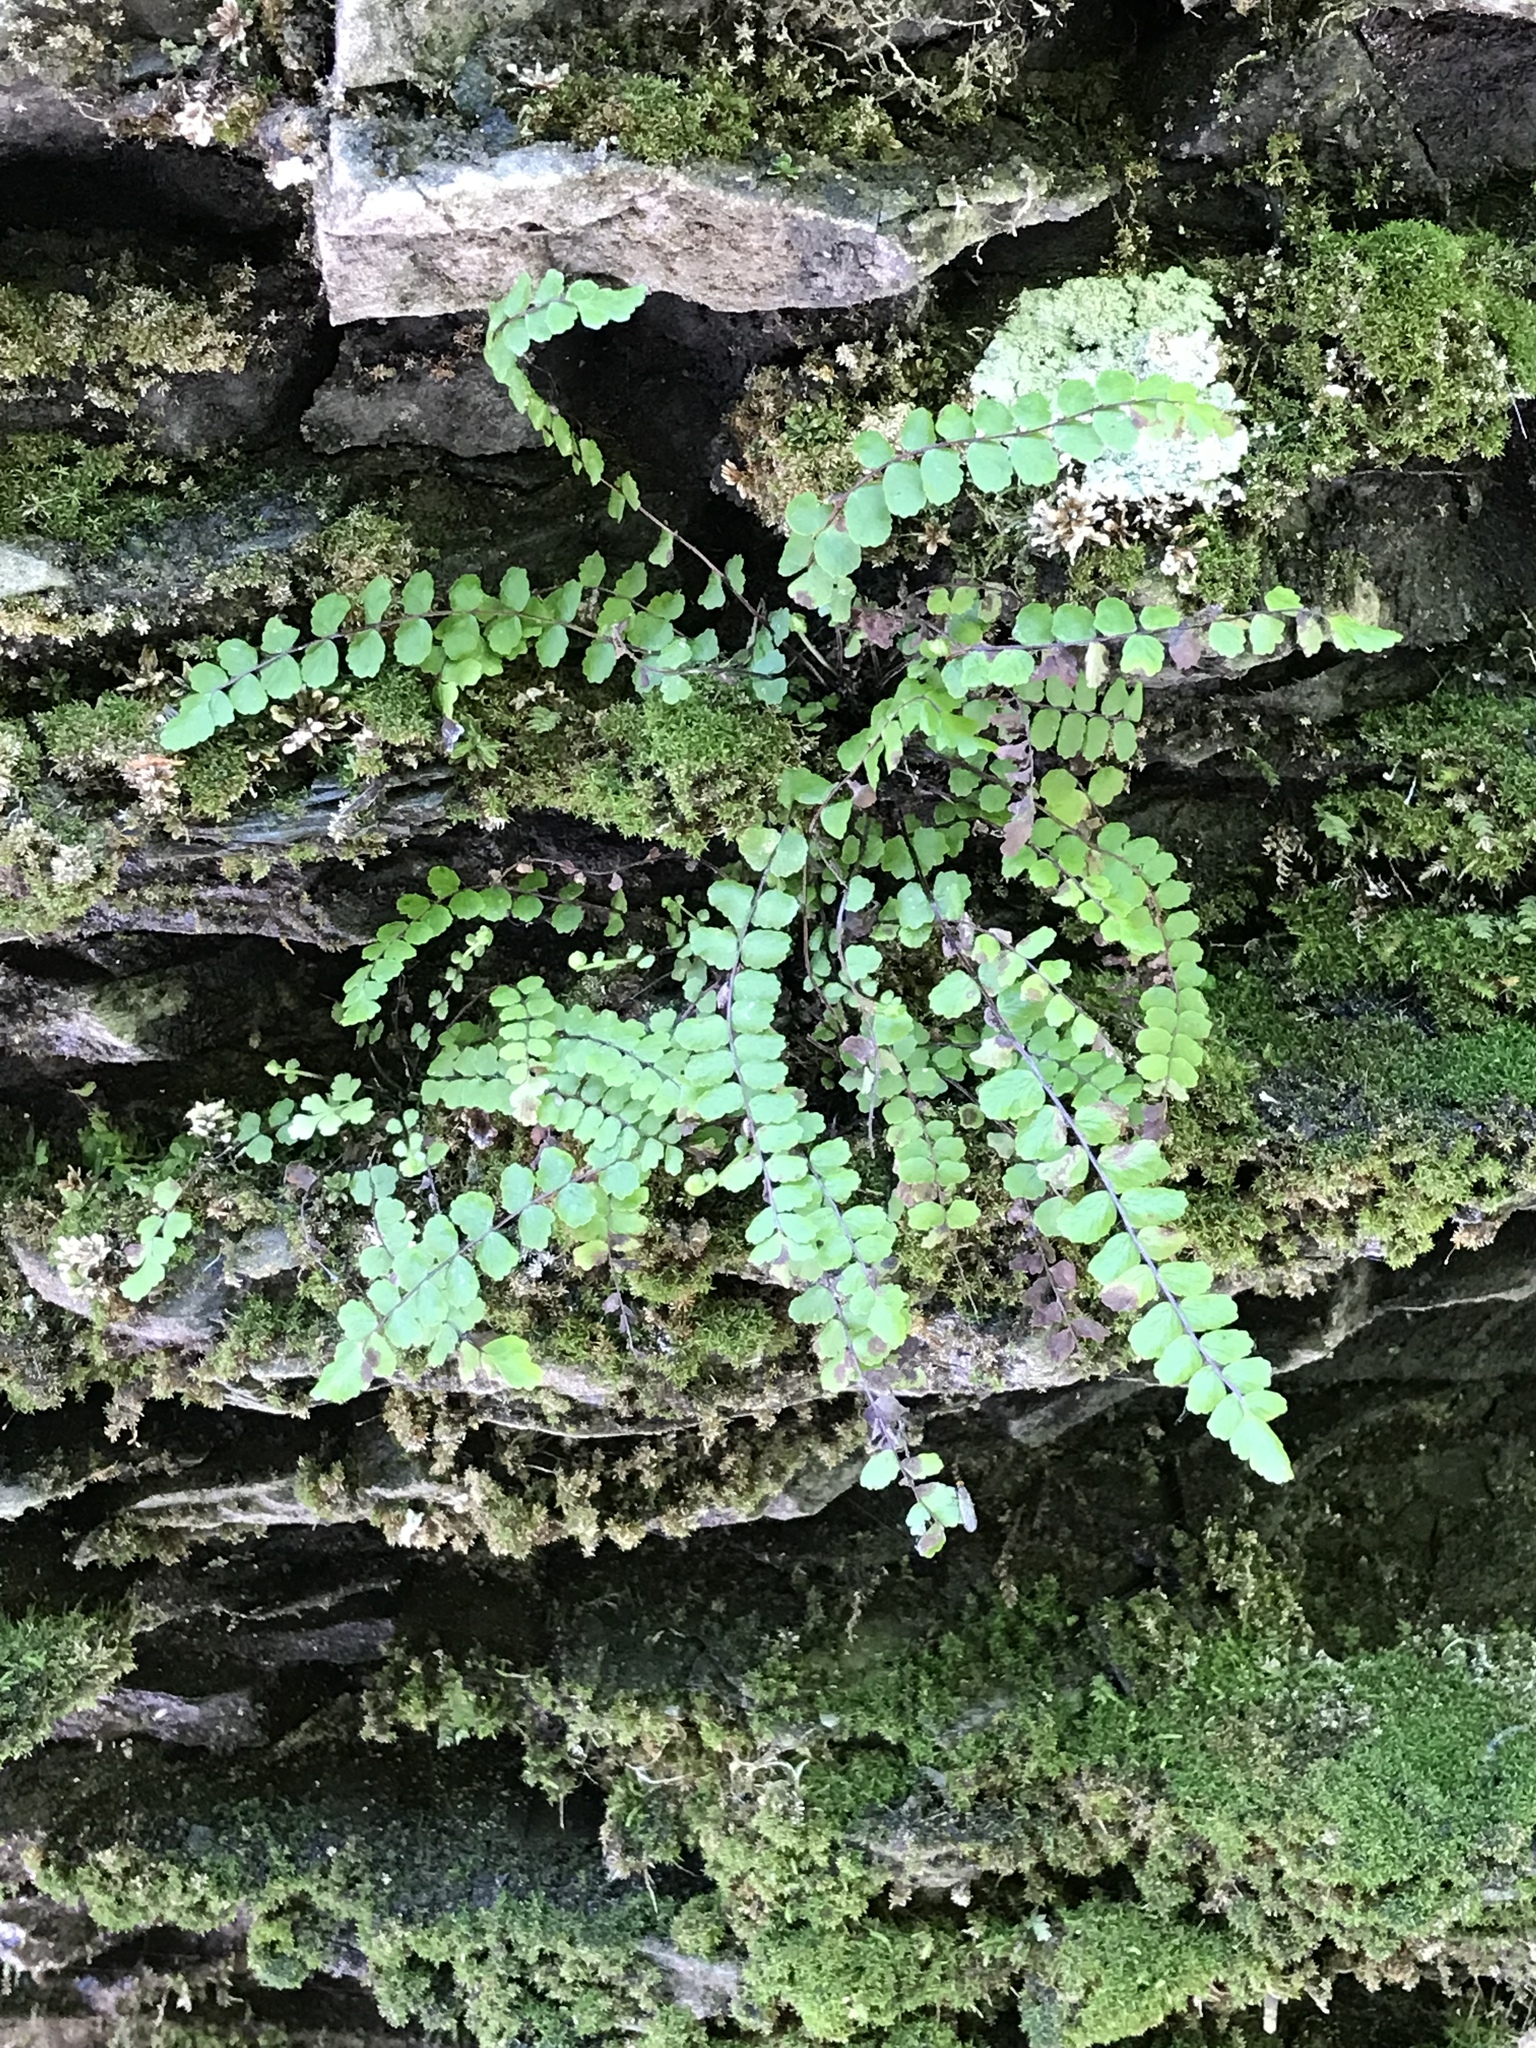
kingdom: Plantae
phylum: Tracheophyta
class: Polypodiopsida
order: Polypodiales
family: Aspleniaceae
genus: Asplenium
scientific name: Asplenium trichomanes
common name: Maidenhair spleenwort
